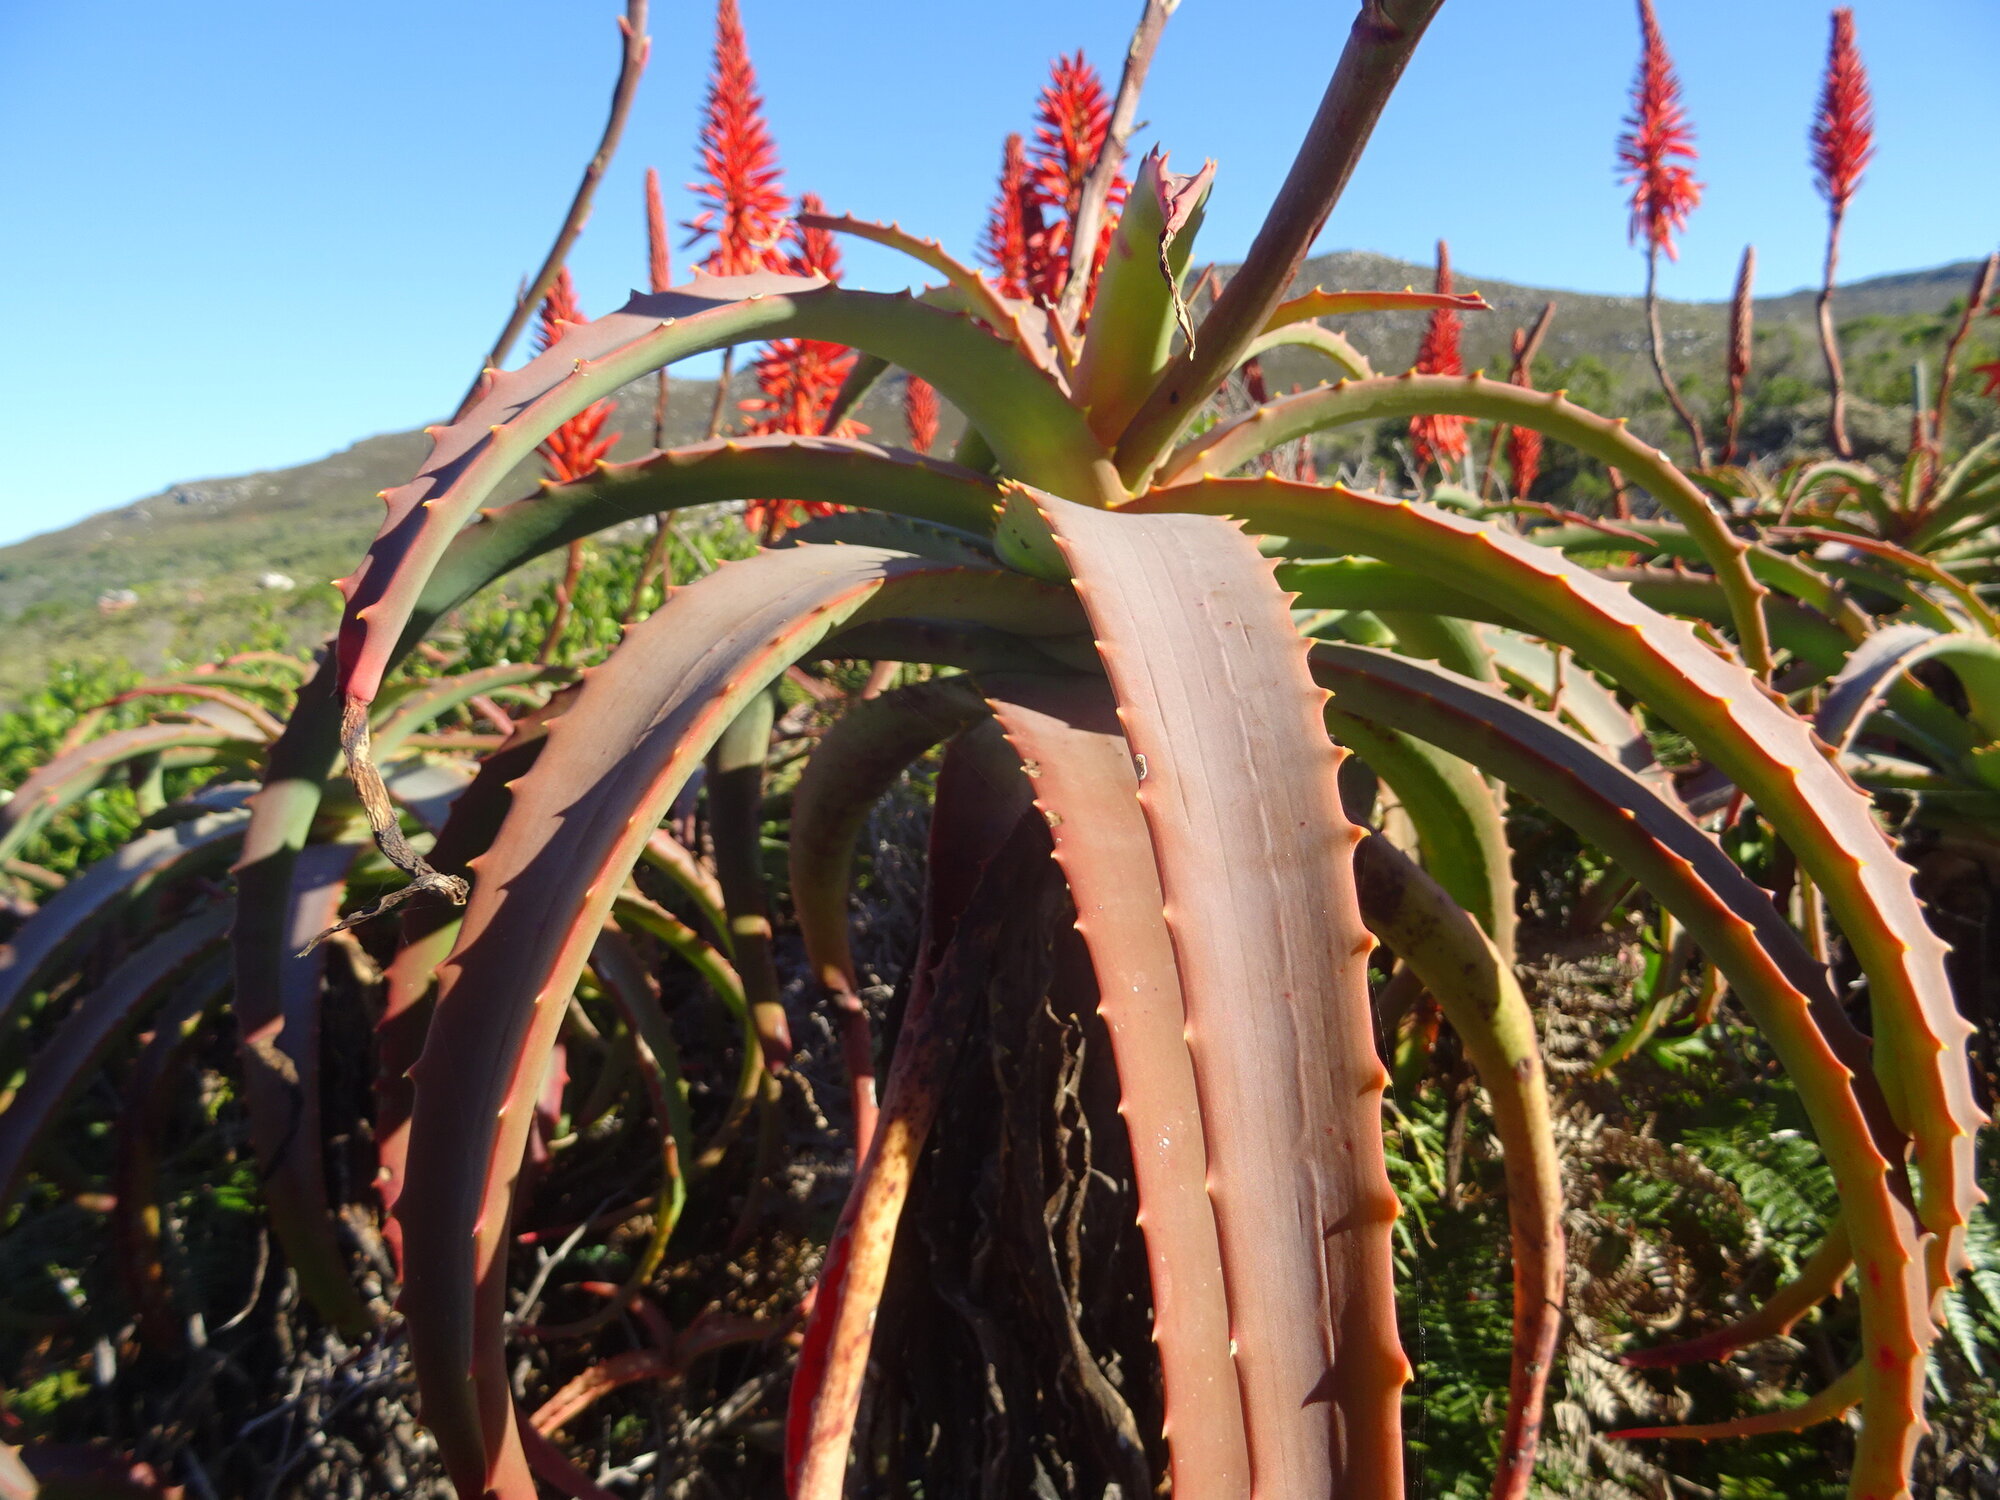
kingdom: Plantae
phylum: Tracheophyta
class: Liliopsida
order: Asparagales
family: Asphodelaceae
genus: Aloe
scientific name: Aloe arborescens
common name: Candelabra aloe
